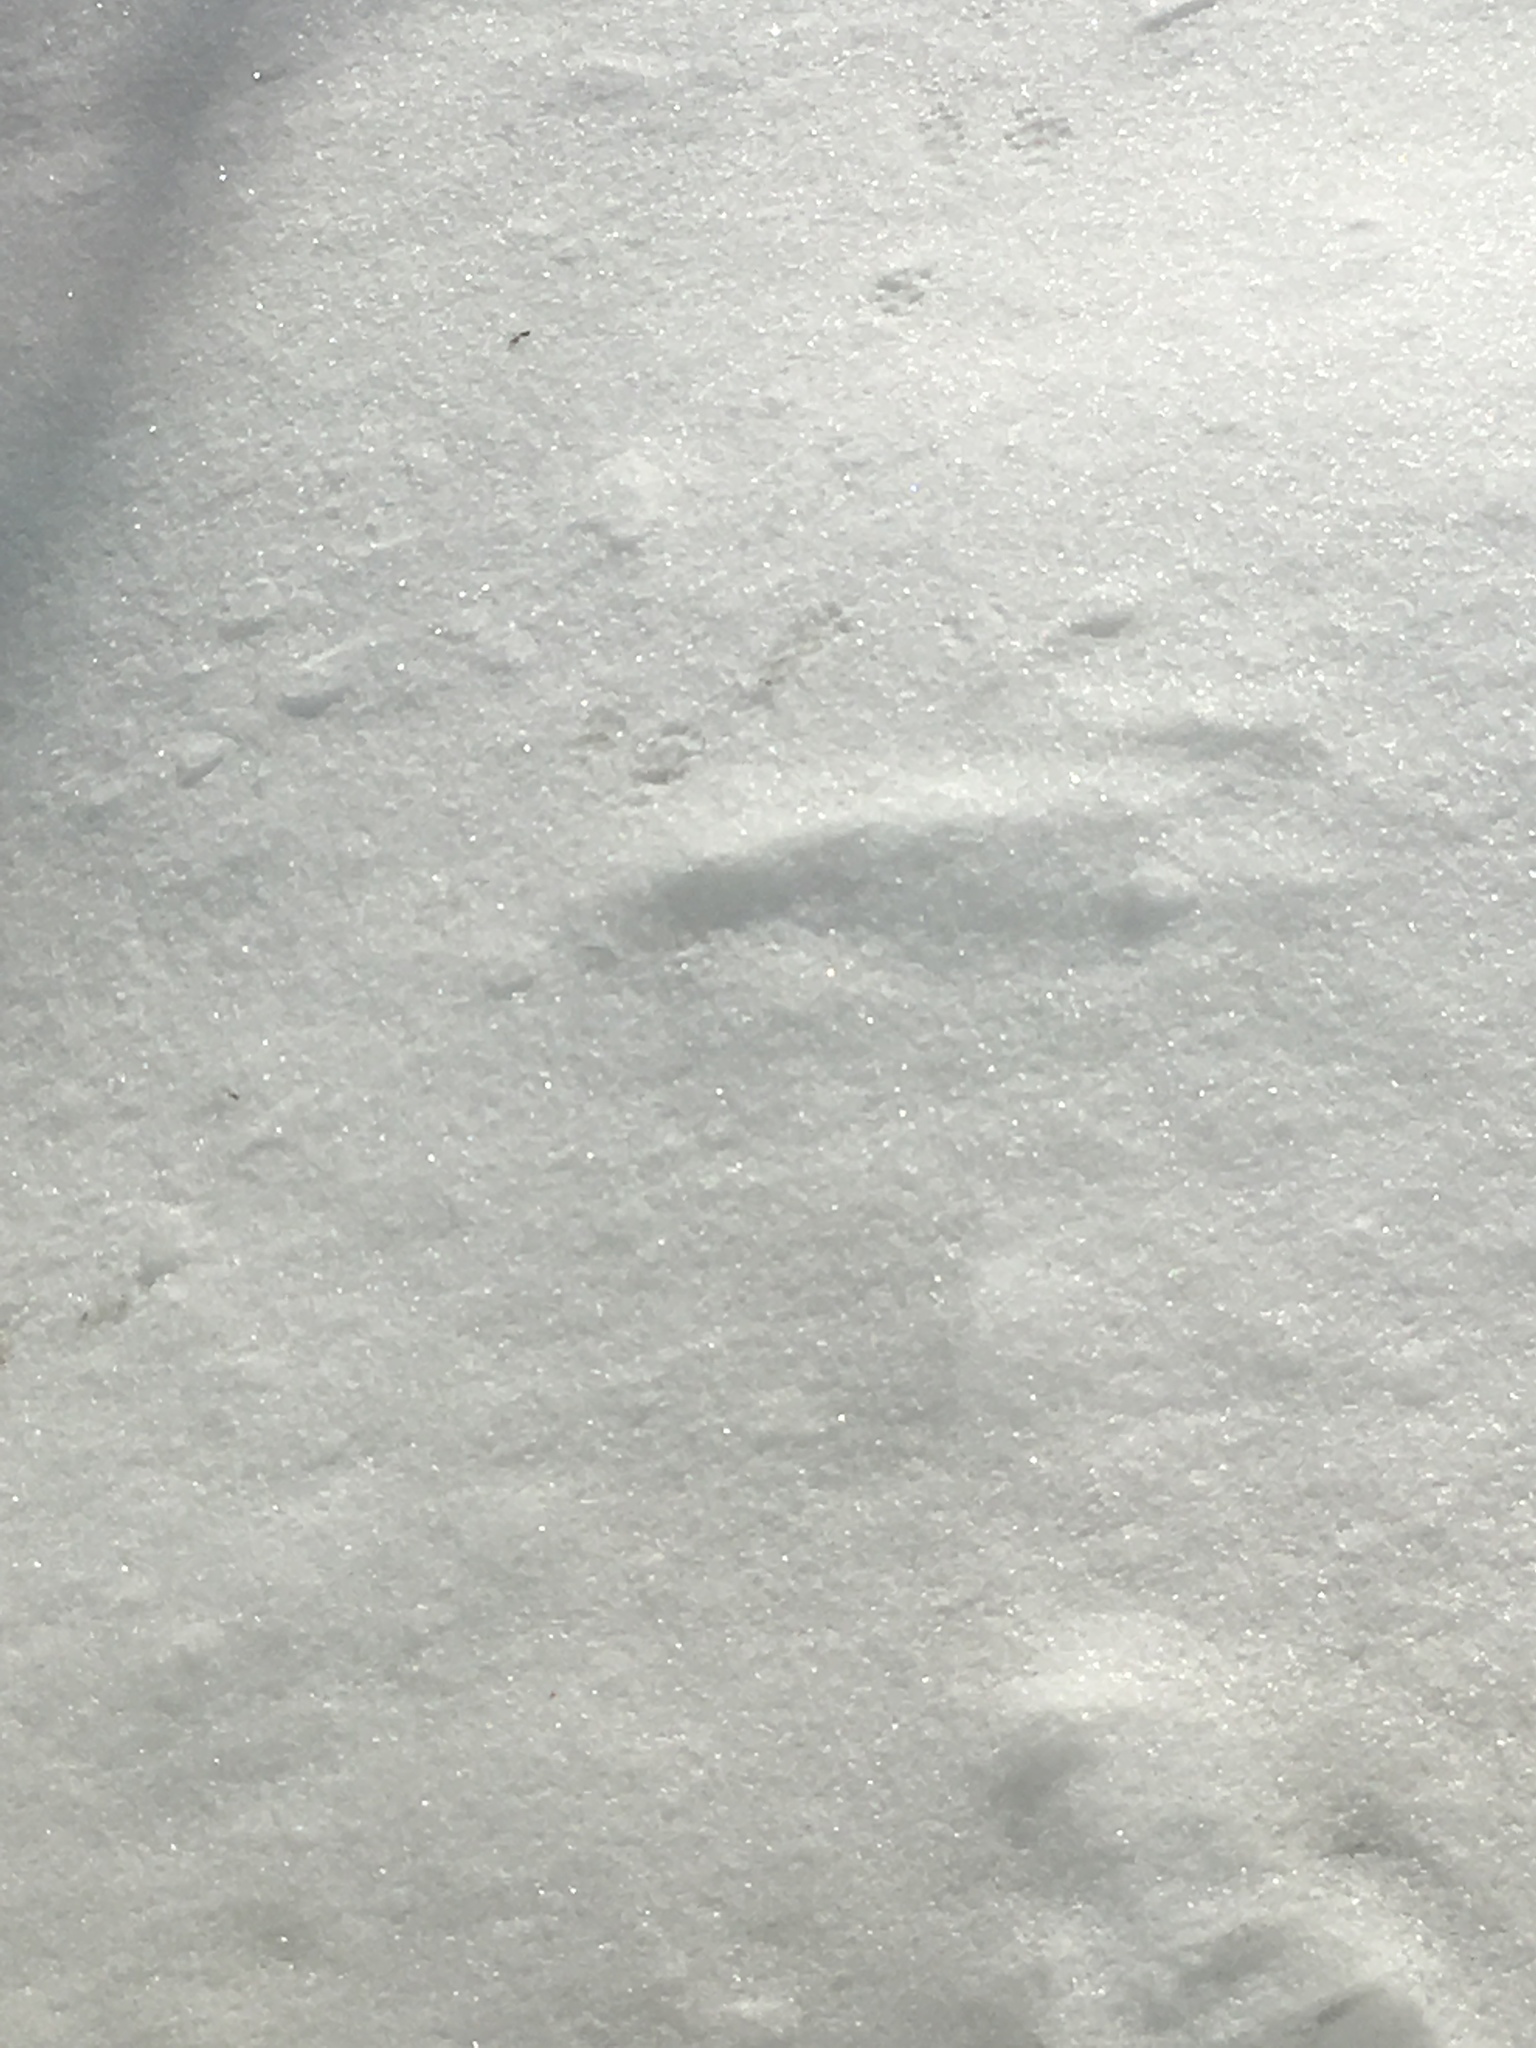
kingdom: Animalia
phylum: Chordata
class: Mammalia
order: Carnivora
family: Mephitidae
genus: Mephitis
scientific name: Mephitis mephitis
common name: Striped skunk
